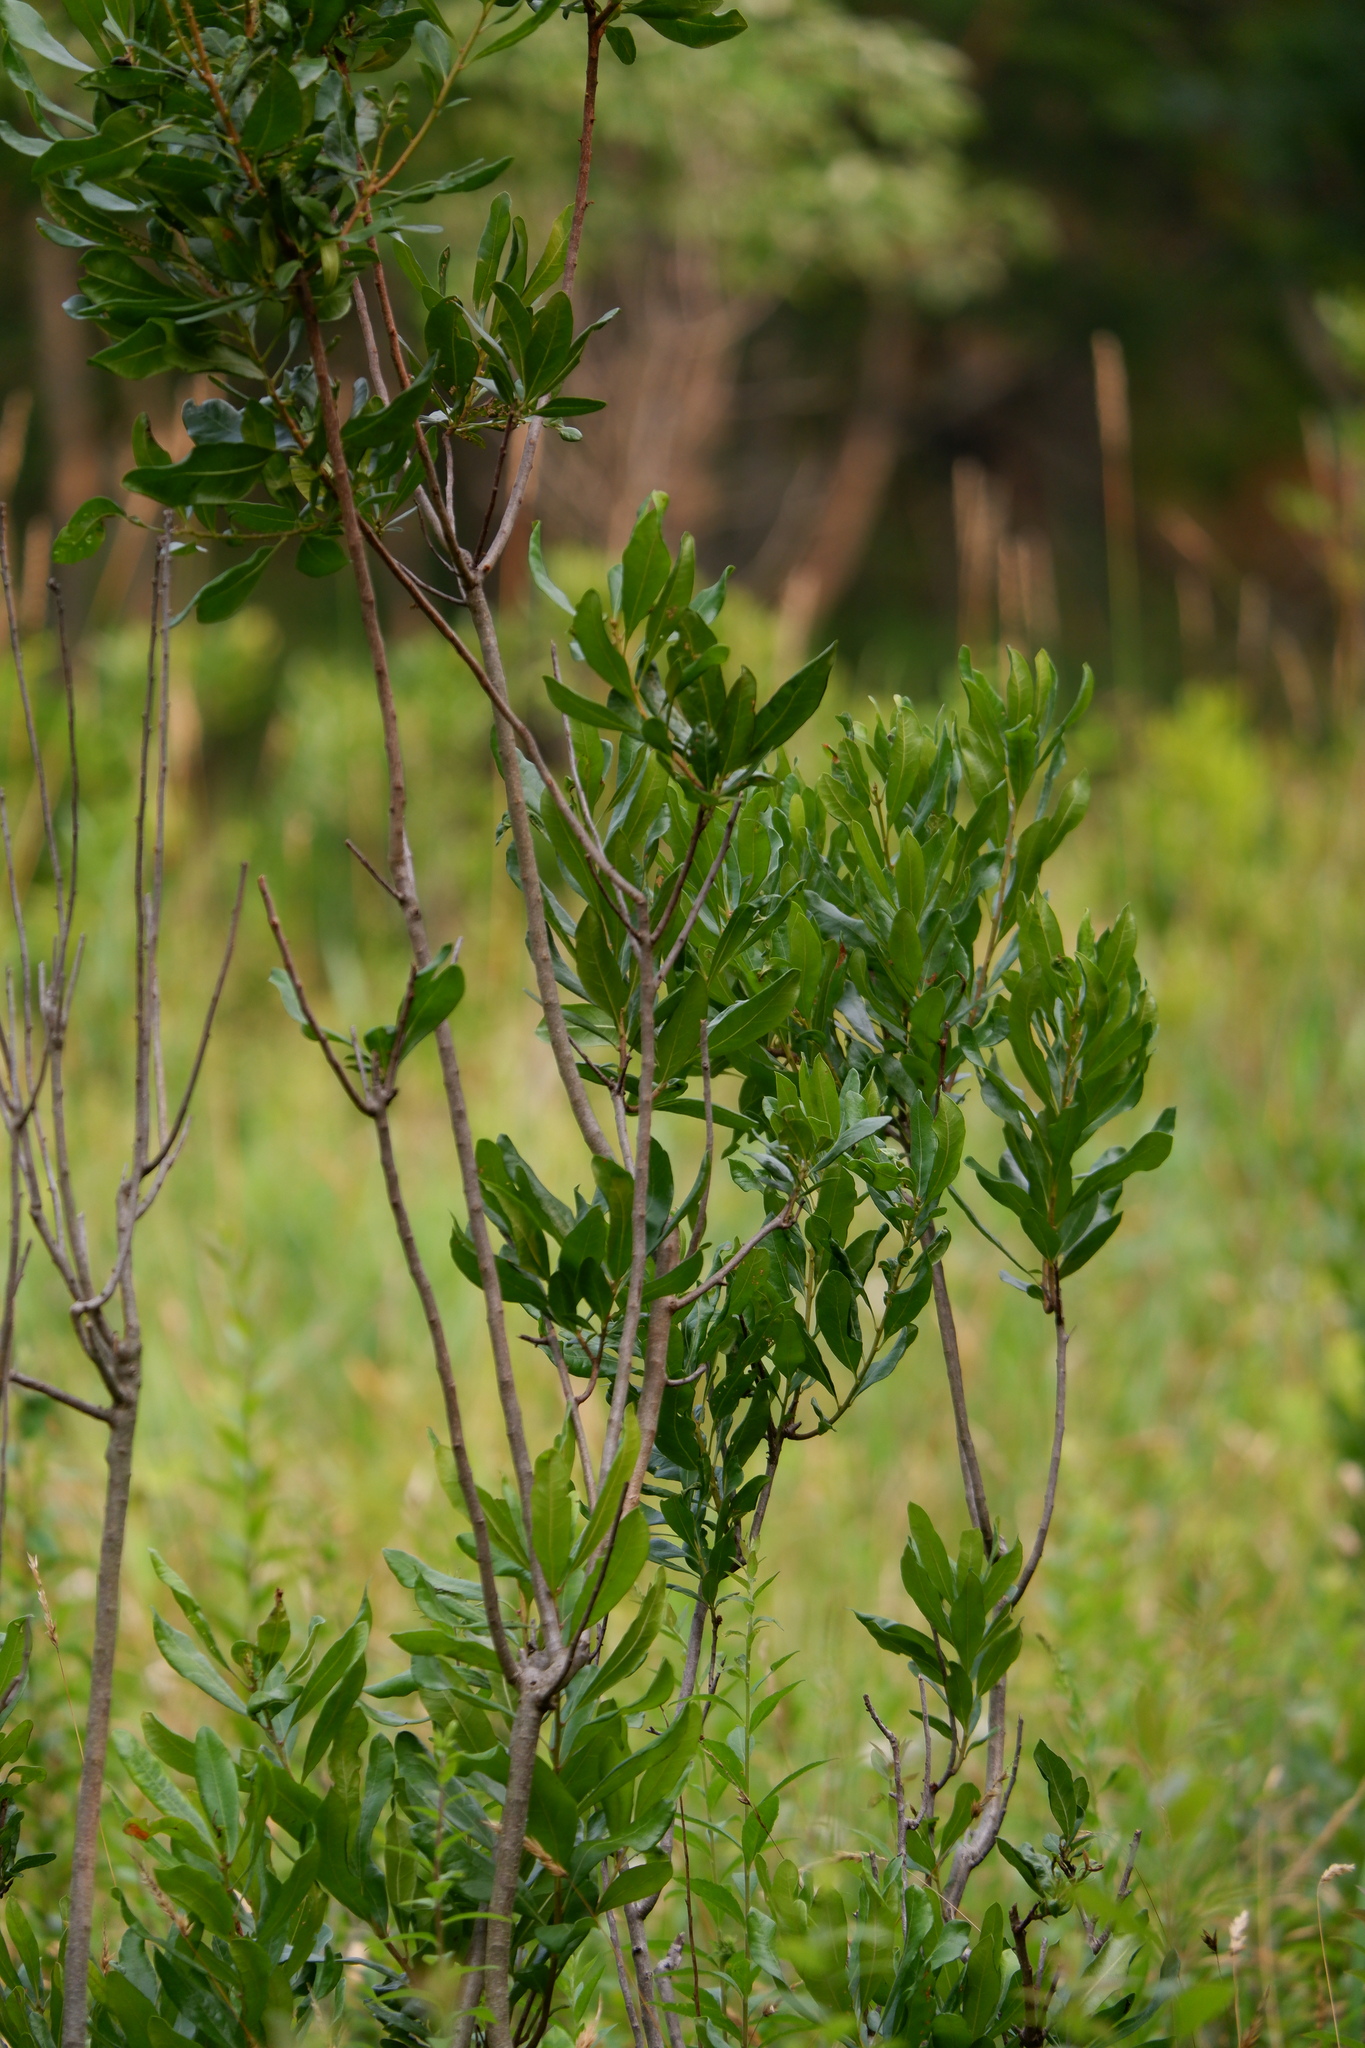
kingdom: Plantae
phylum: Tracheophyta
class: Magnoliopsida
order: Fagales
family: Myricaceae
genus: Morella
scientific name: Morella pensylvanica
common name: Northern bayberry
